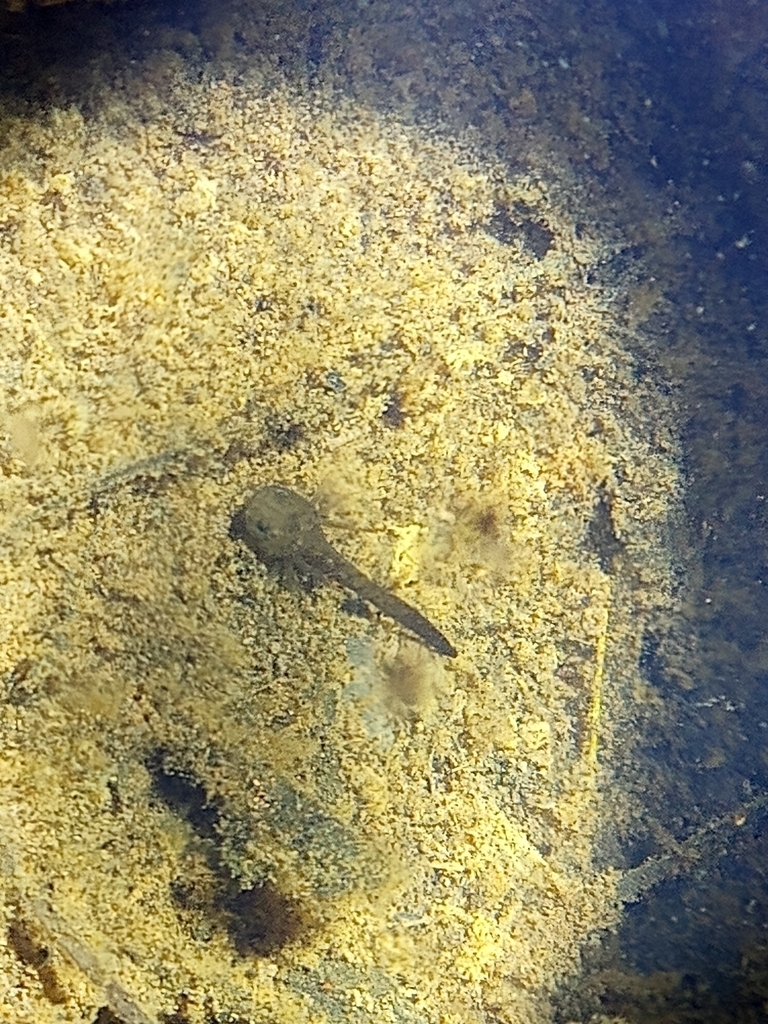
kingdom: Animalia
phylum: Chordata
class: Amphibia
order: Caudata
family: Ambystomatidae
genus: Ambystoma
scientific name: Ambystoma flavipiperatum
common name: Yellow-peppered salamander
